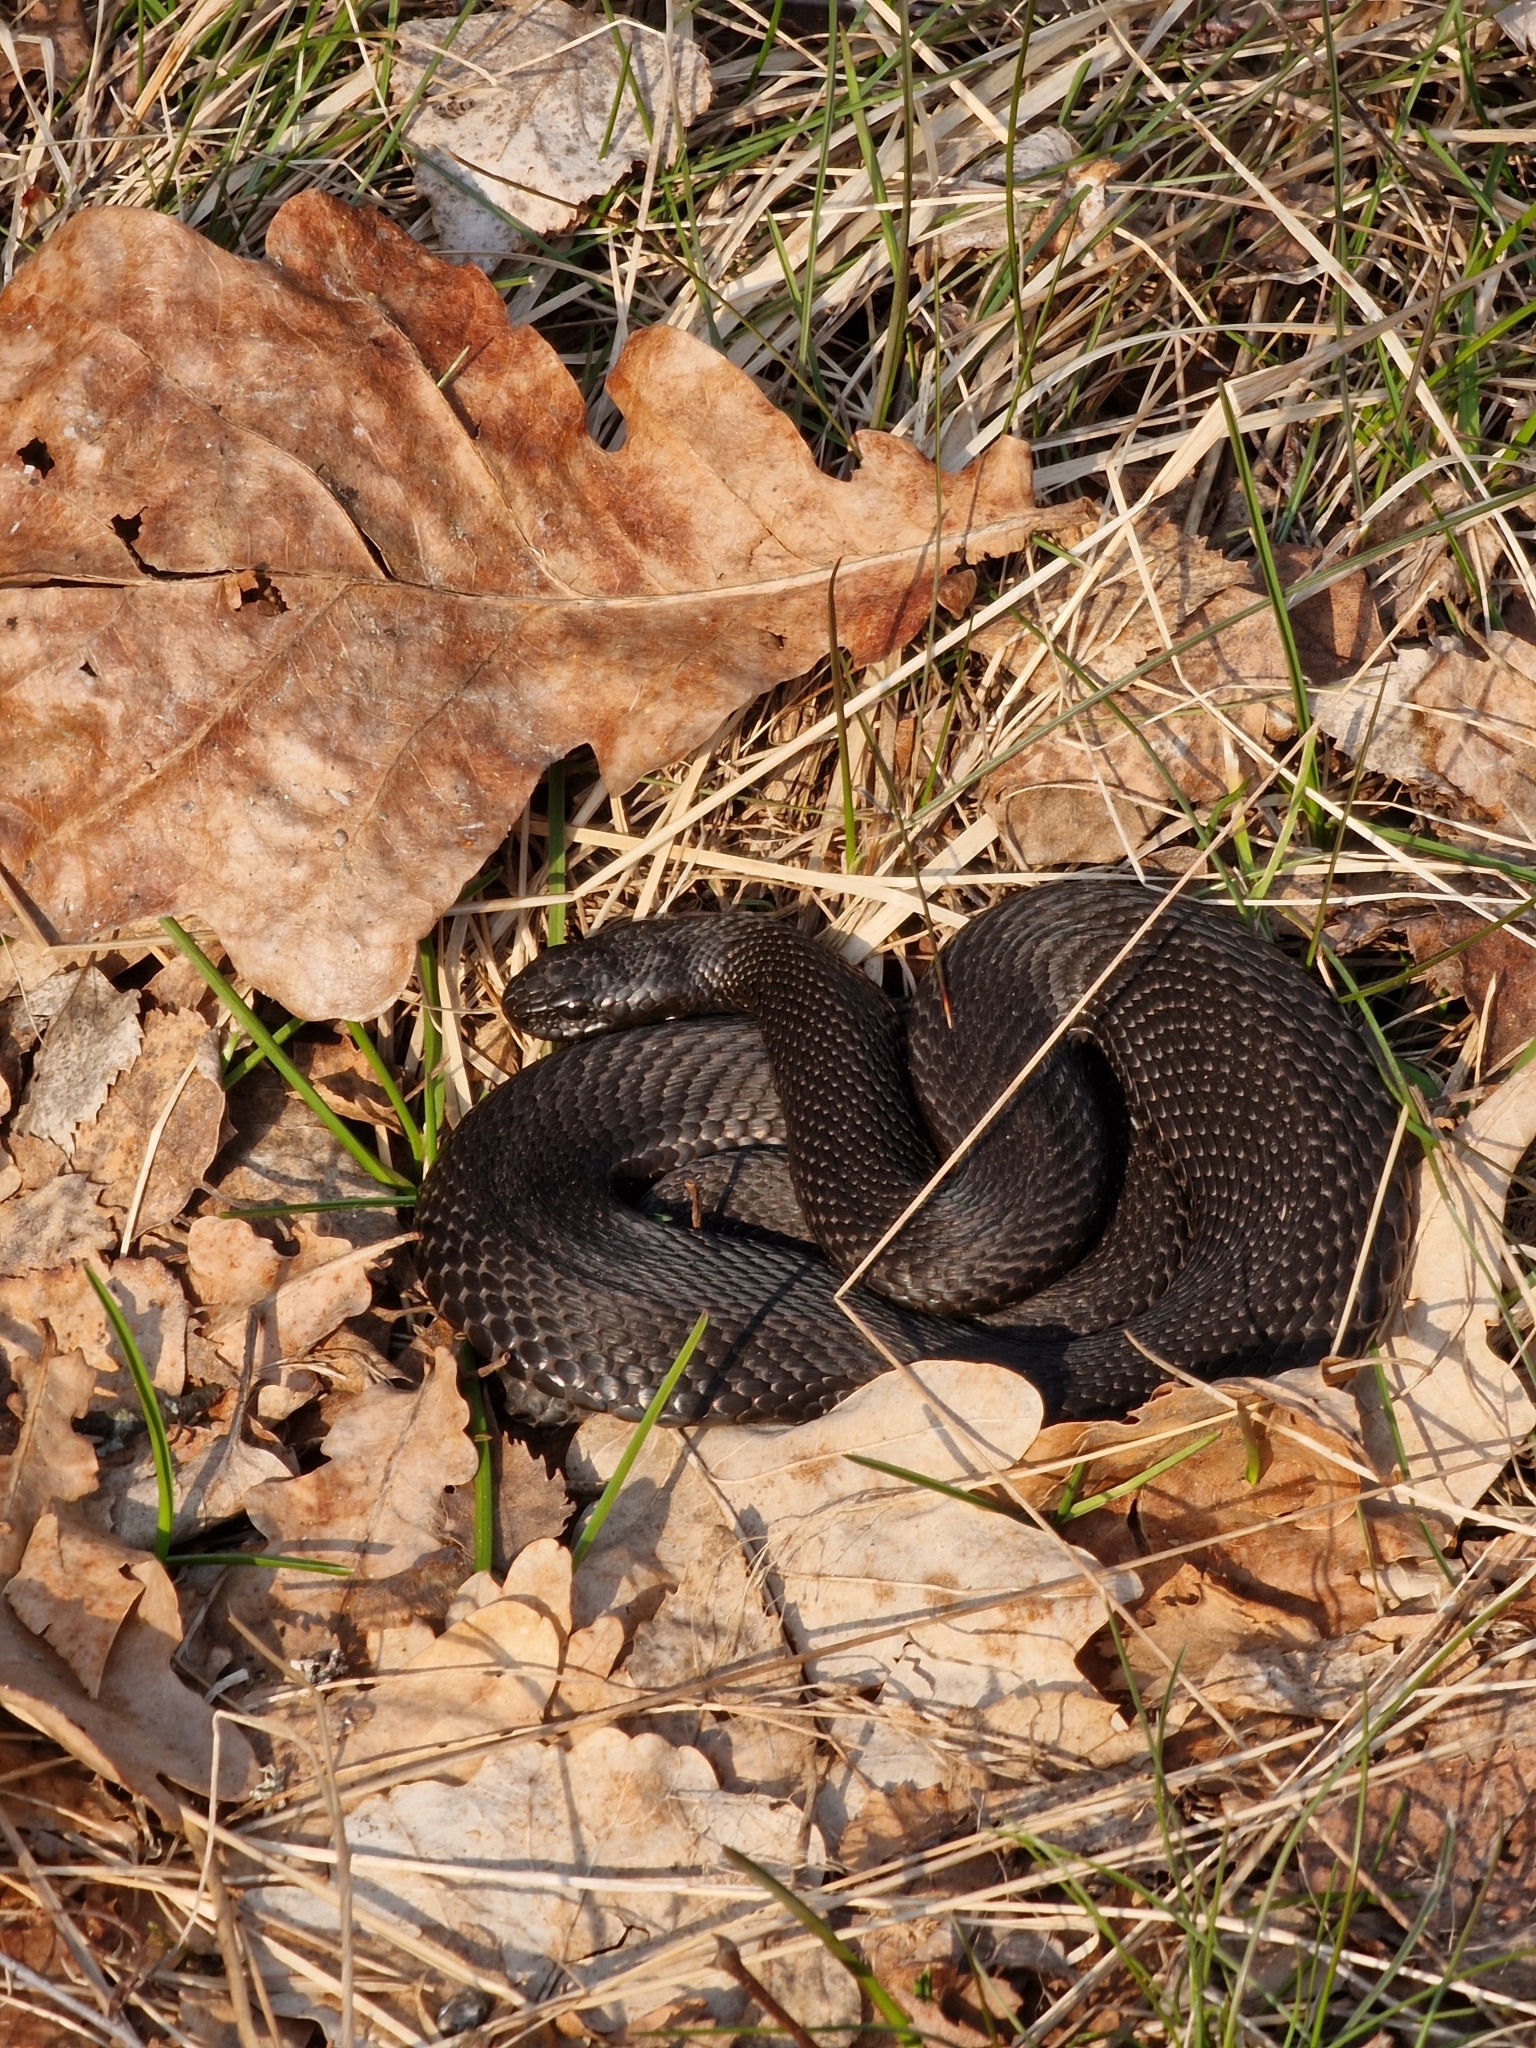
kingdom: Animalia
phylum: Chordata
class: Squamata
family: Viperidae
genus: Vipera
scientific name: Vipera berus
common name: Adder
